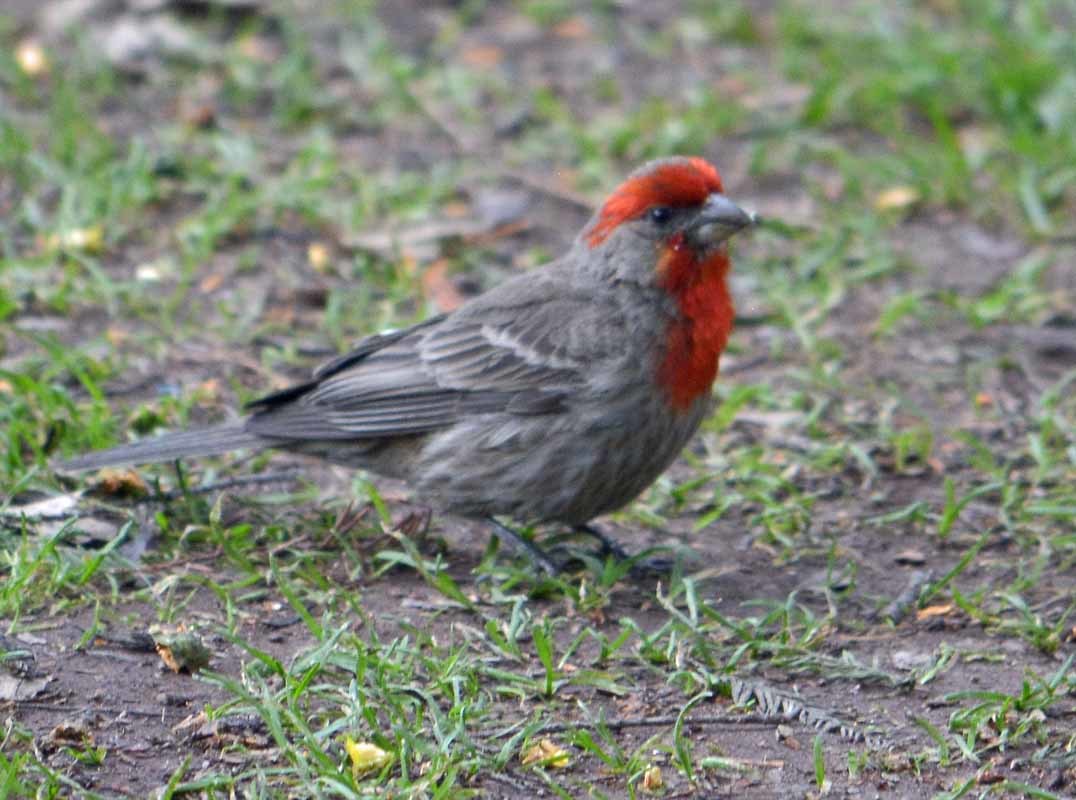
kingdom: Animalia
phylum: Chordata
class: Aves
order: Passeriformes
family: Fringillidae
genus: Haemorhous
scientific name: Haemorhous mexicanus
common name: House finch
